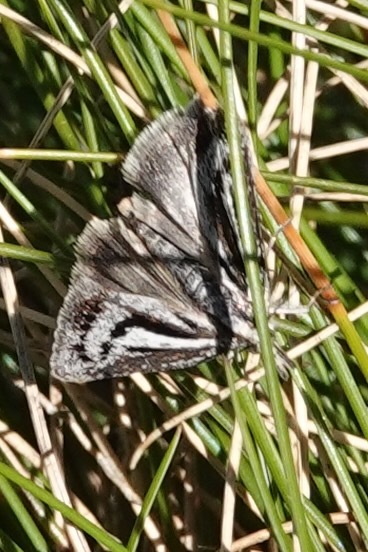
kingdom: Animalia
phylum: Arthropoda
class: Insecta
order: Lepidoptera
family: Crambidae
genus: Orocrambus
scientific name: Orocrambus machaeristes
